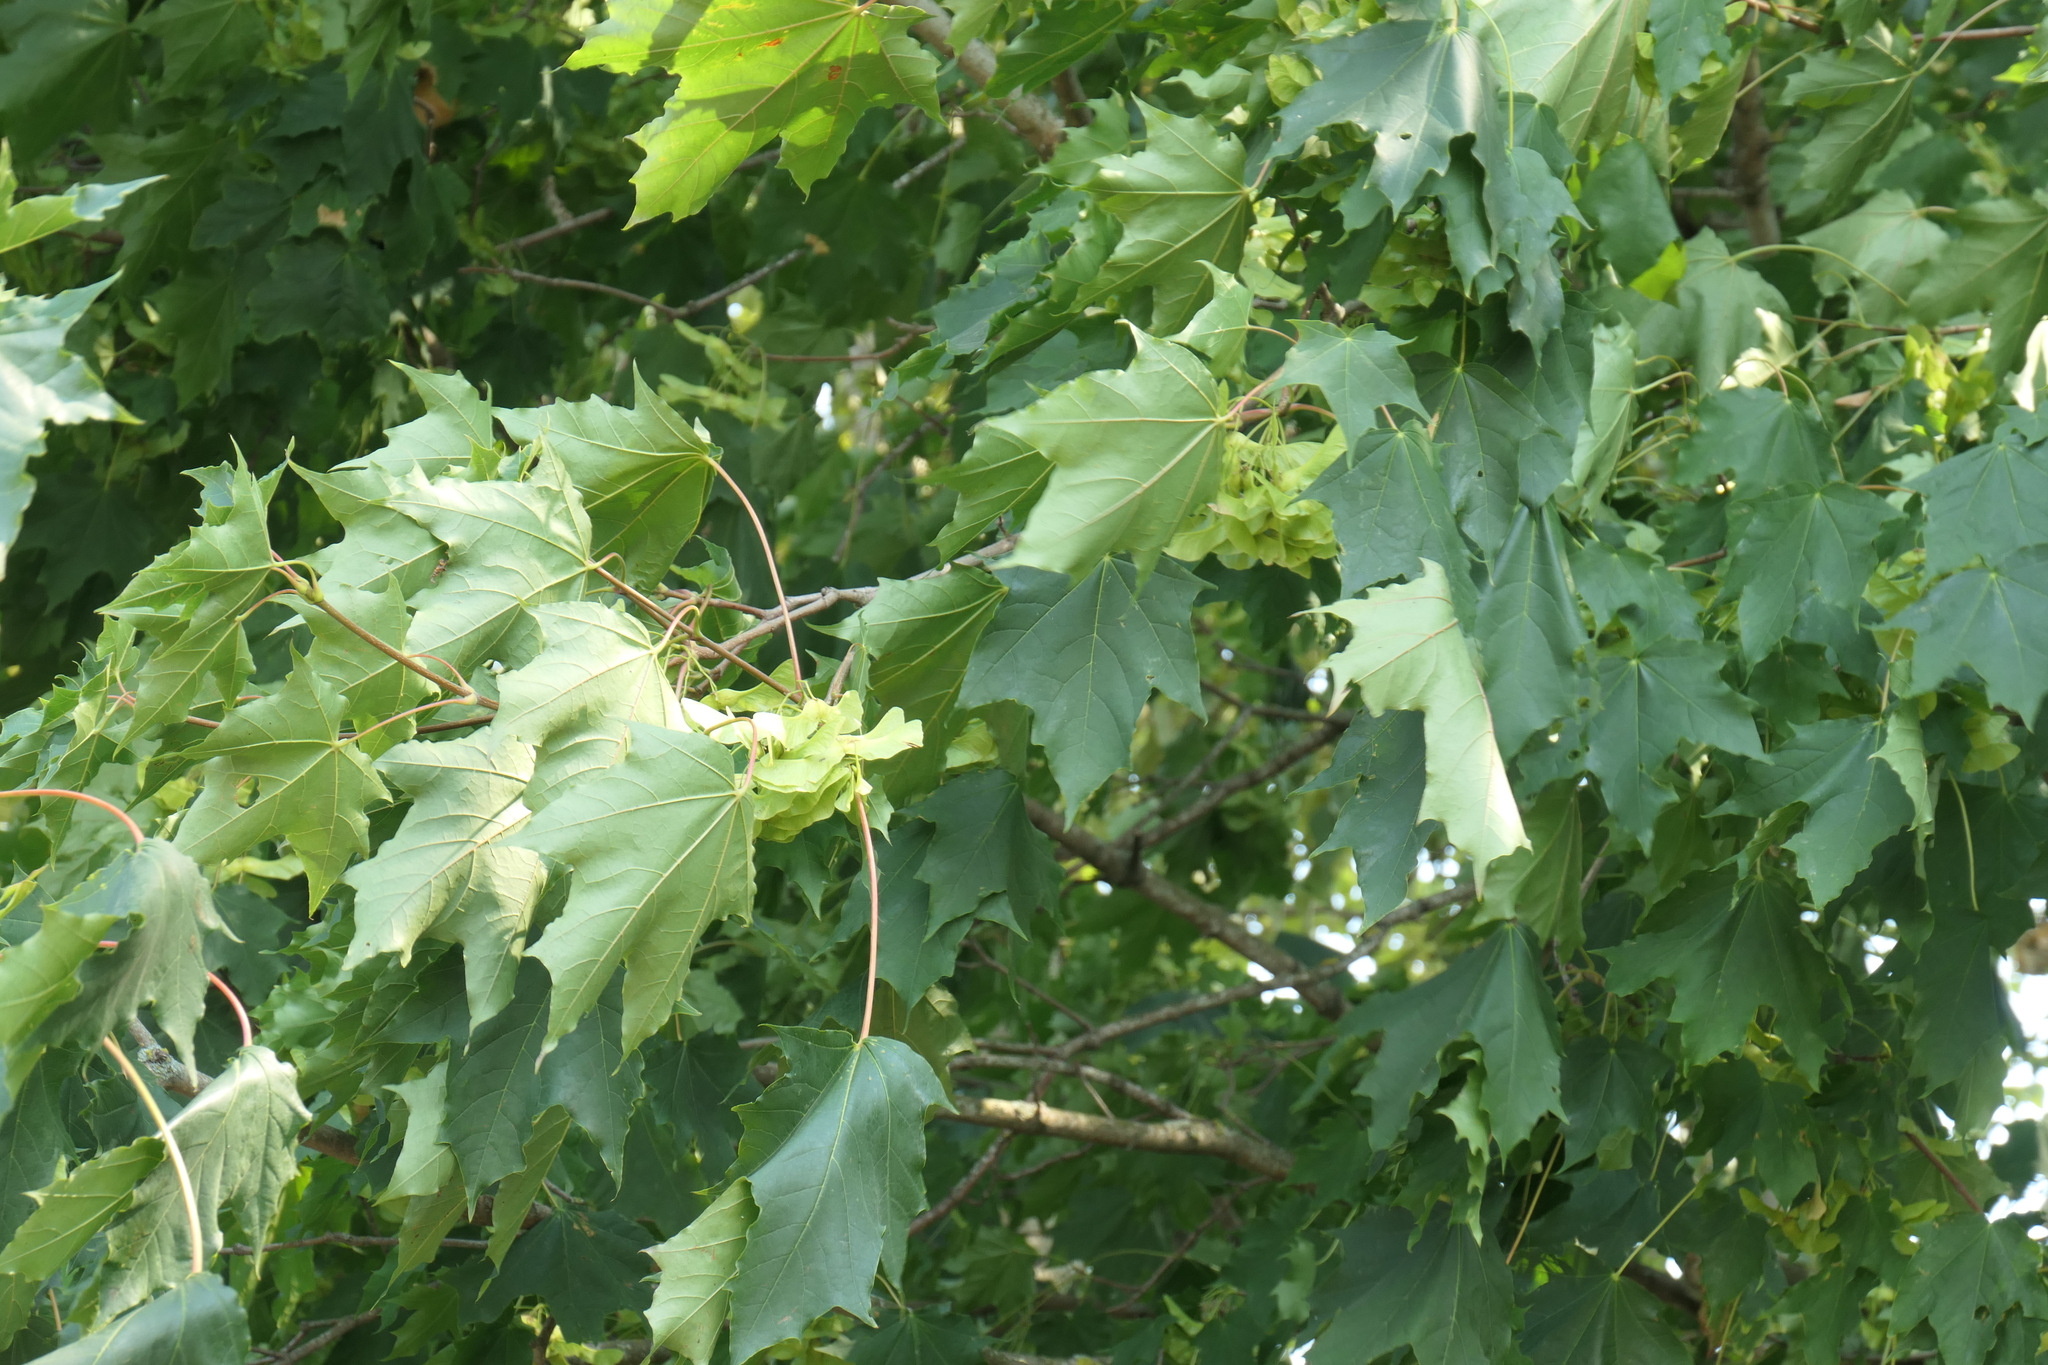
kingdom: Plantae
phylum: Tracheophyta
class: Magnoliopsida
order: Sapindales
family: Sapindaceae
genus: Acer
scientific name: Acer platanoides
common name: Norway maple
